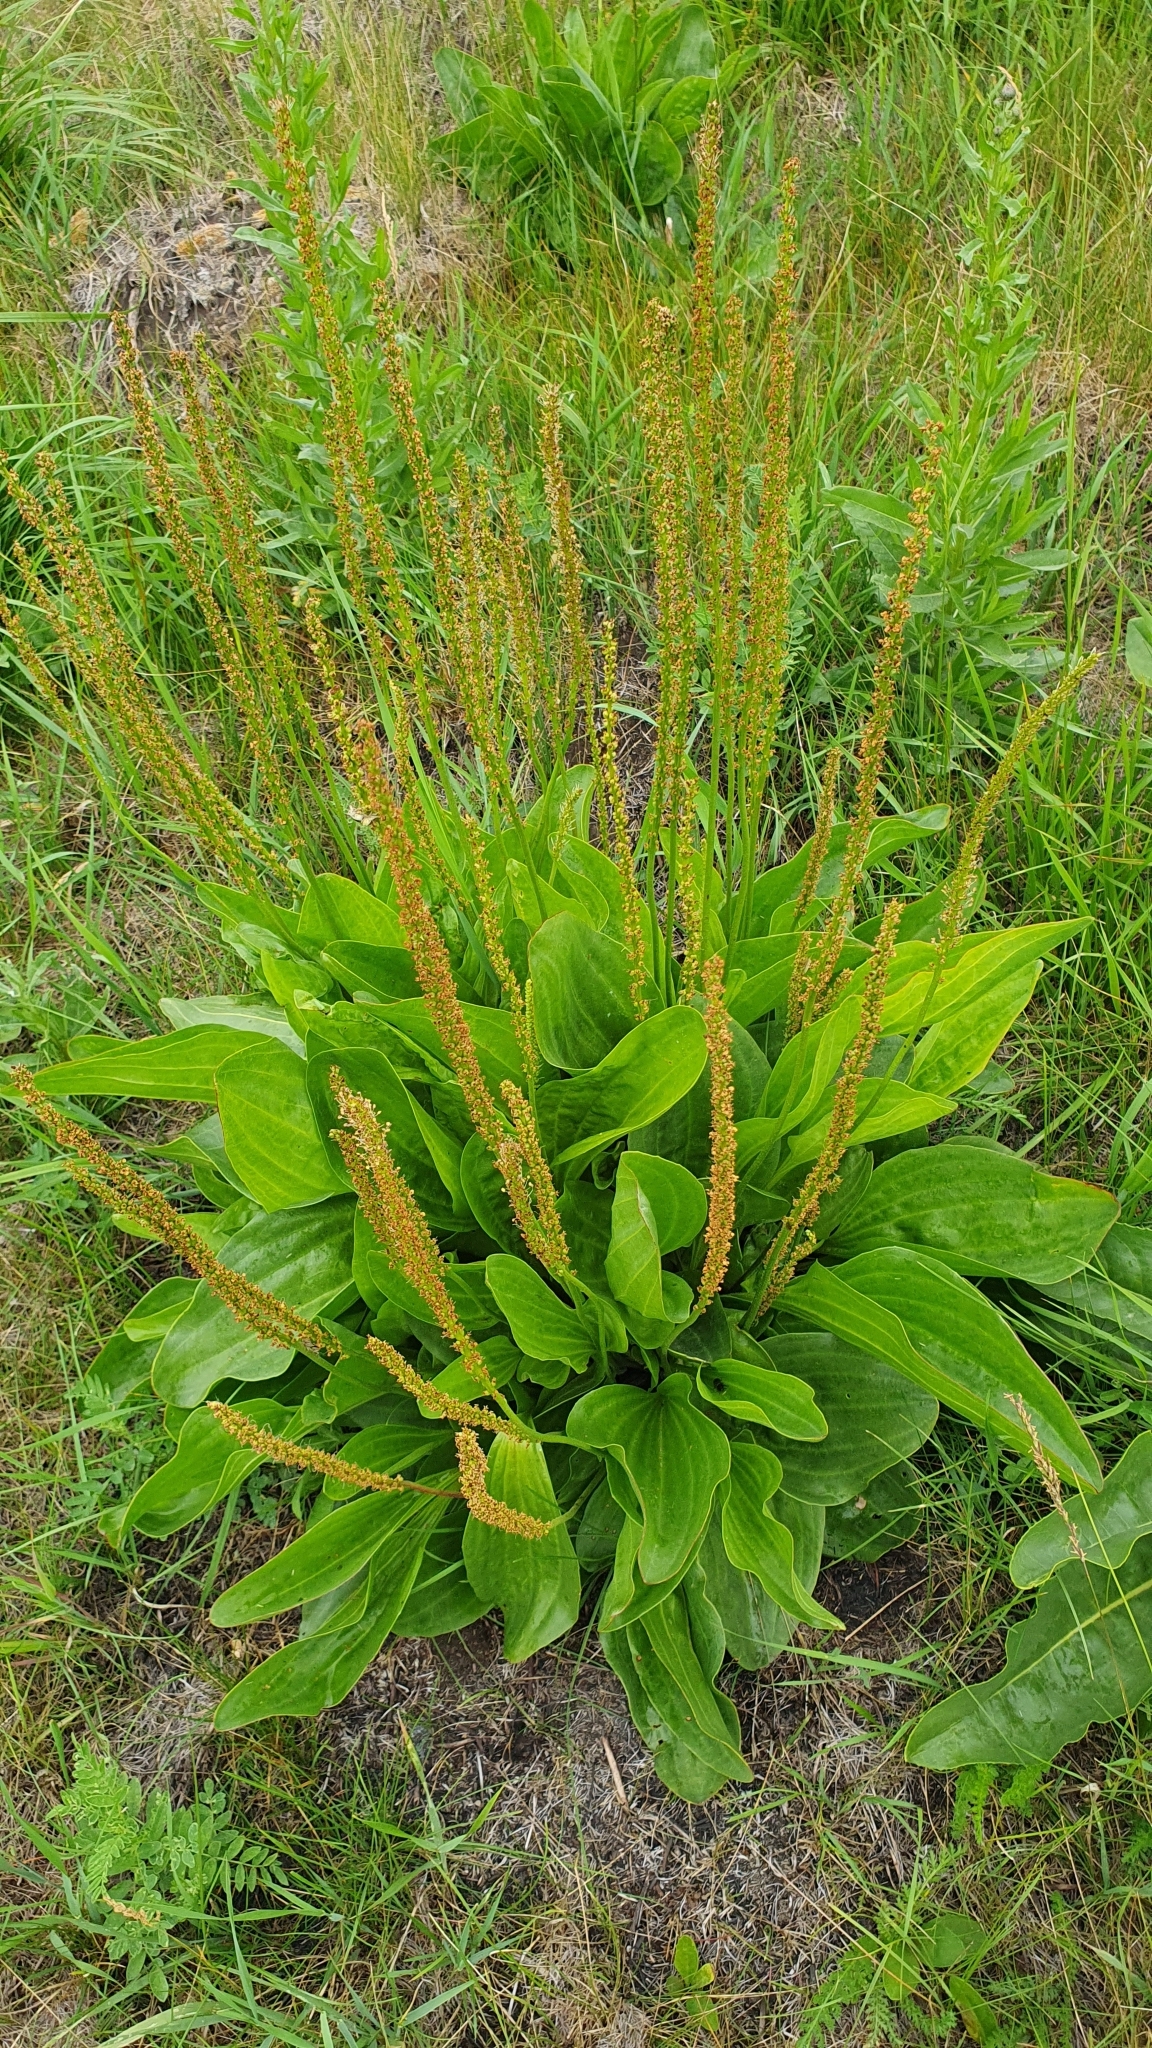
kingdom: Plantae
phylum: Tracheophyta
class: Magnoliopsida
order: Lamiales
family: Plantaginaceae
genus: Plantago
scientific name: Plantago cornuti
